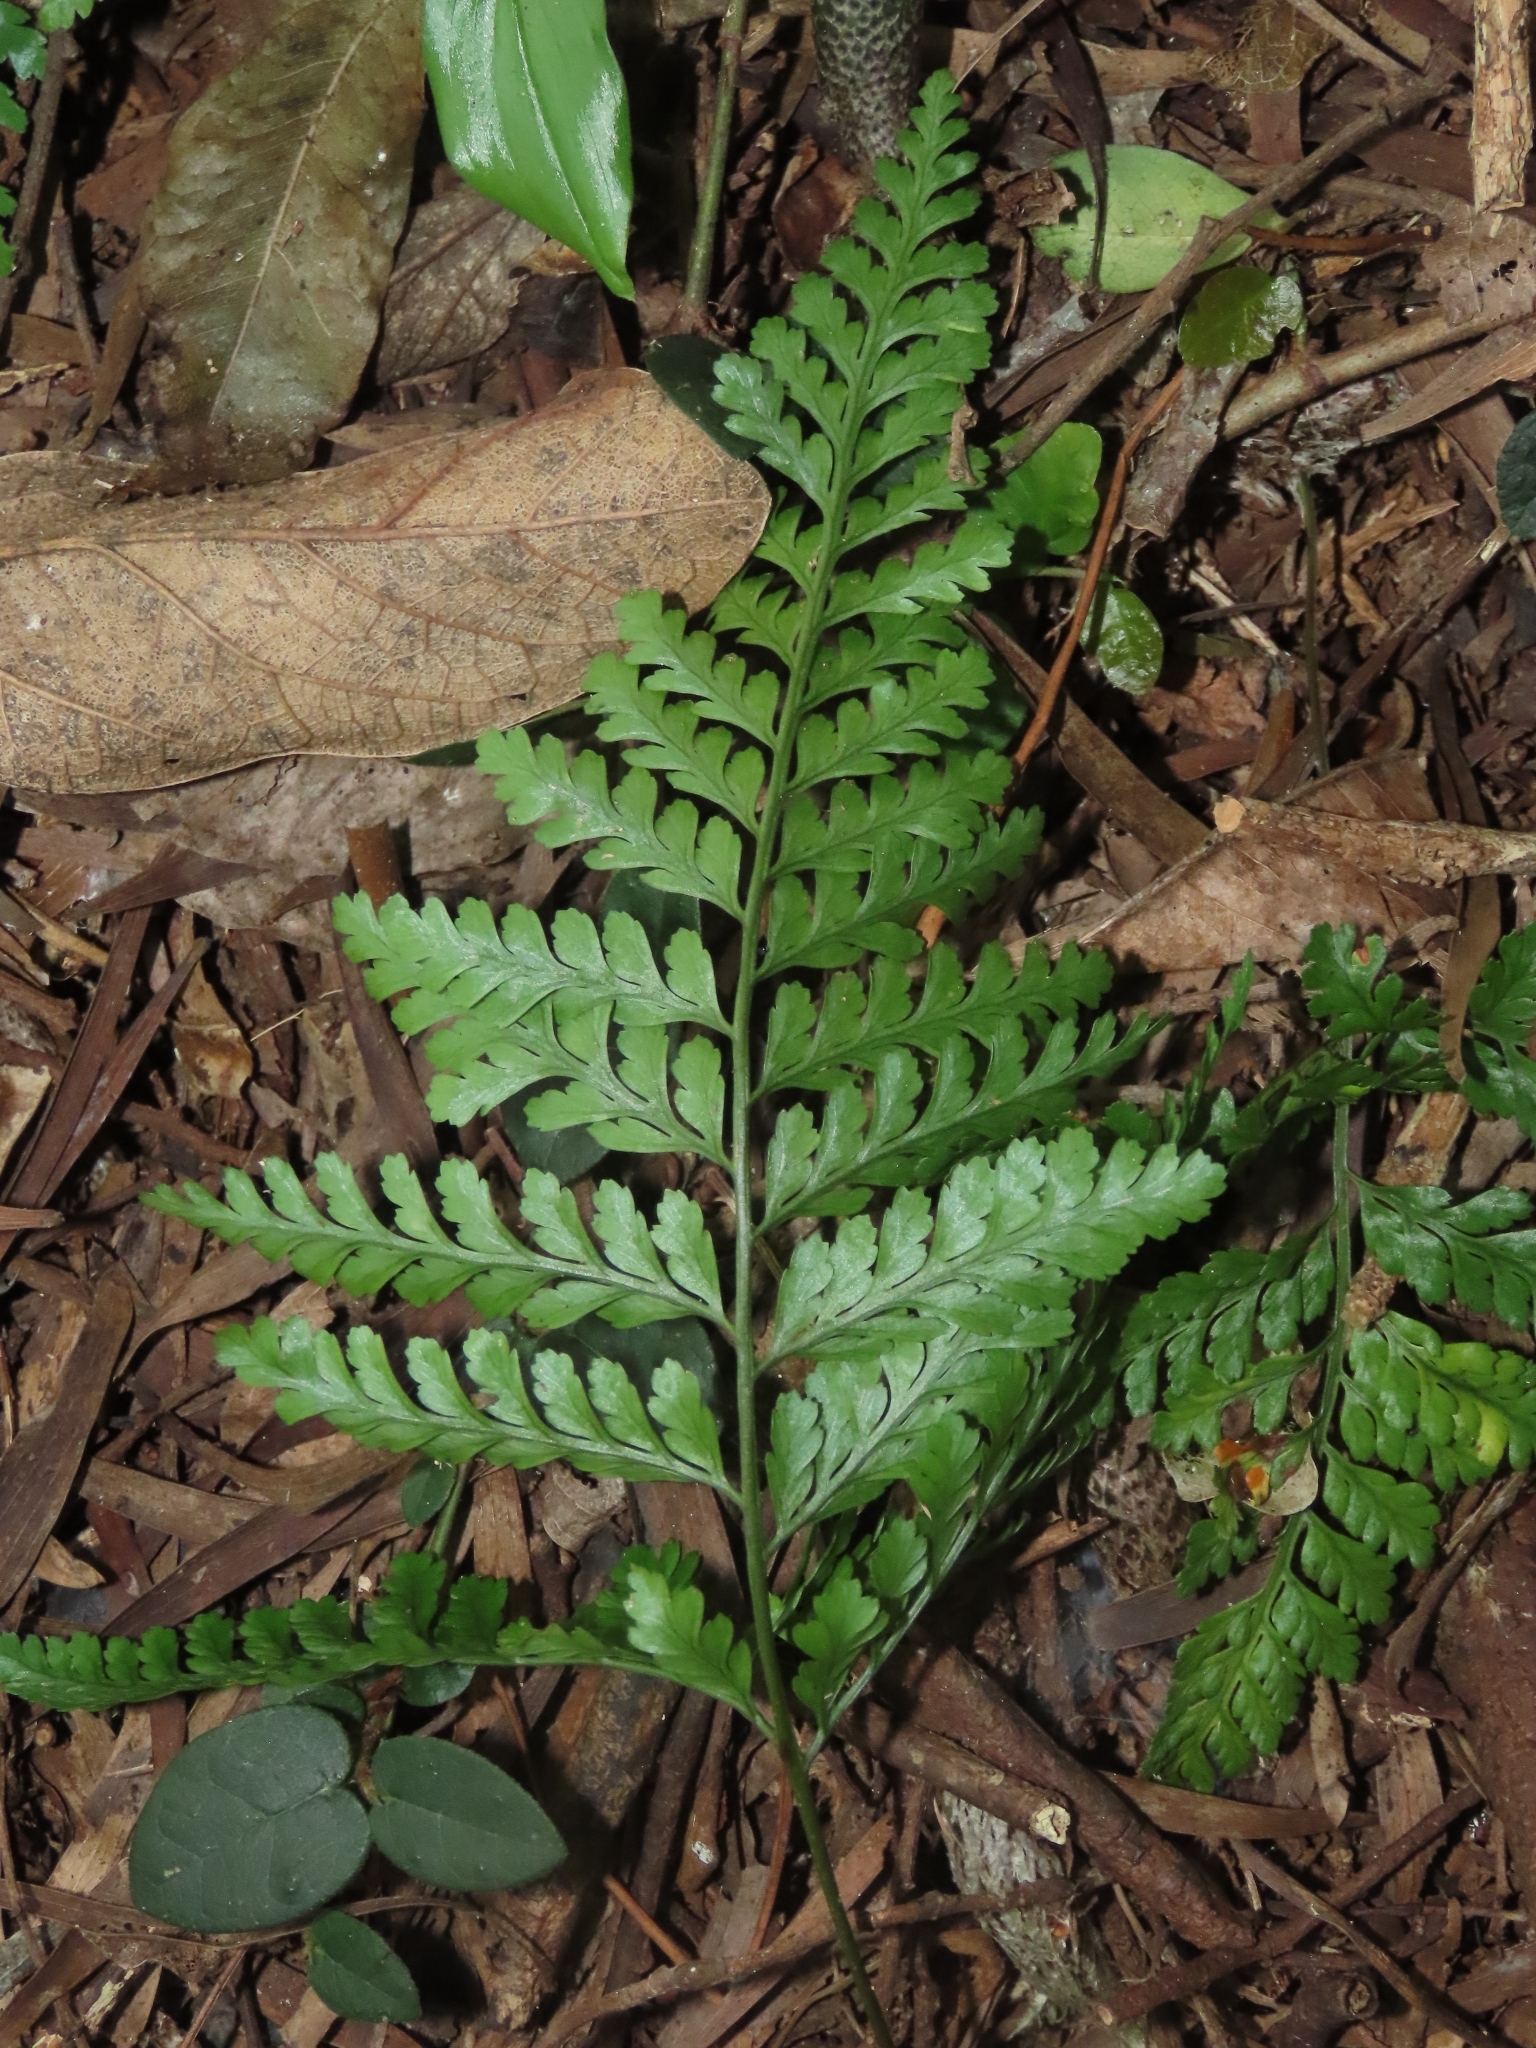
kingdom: Plantae
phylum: Tracheophyta
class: Polypodiopsida
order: Polypodiales
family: Davalliaceae
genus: Davallia
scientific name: Davallia tyermannii
